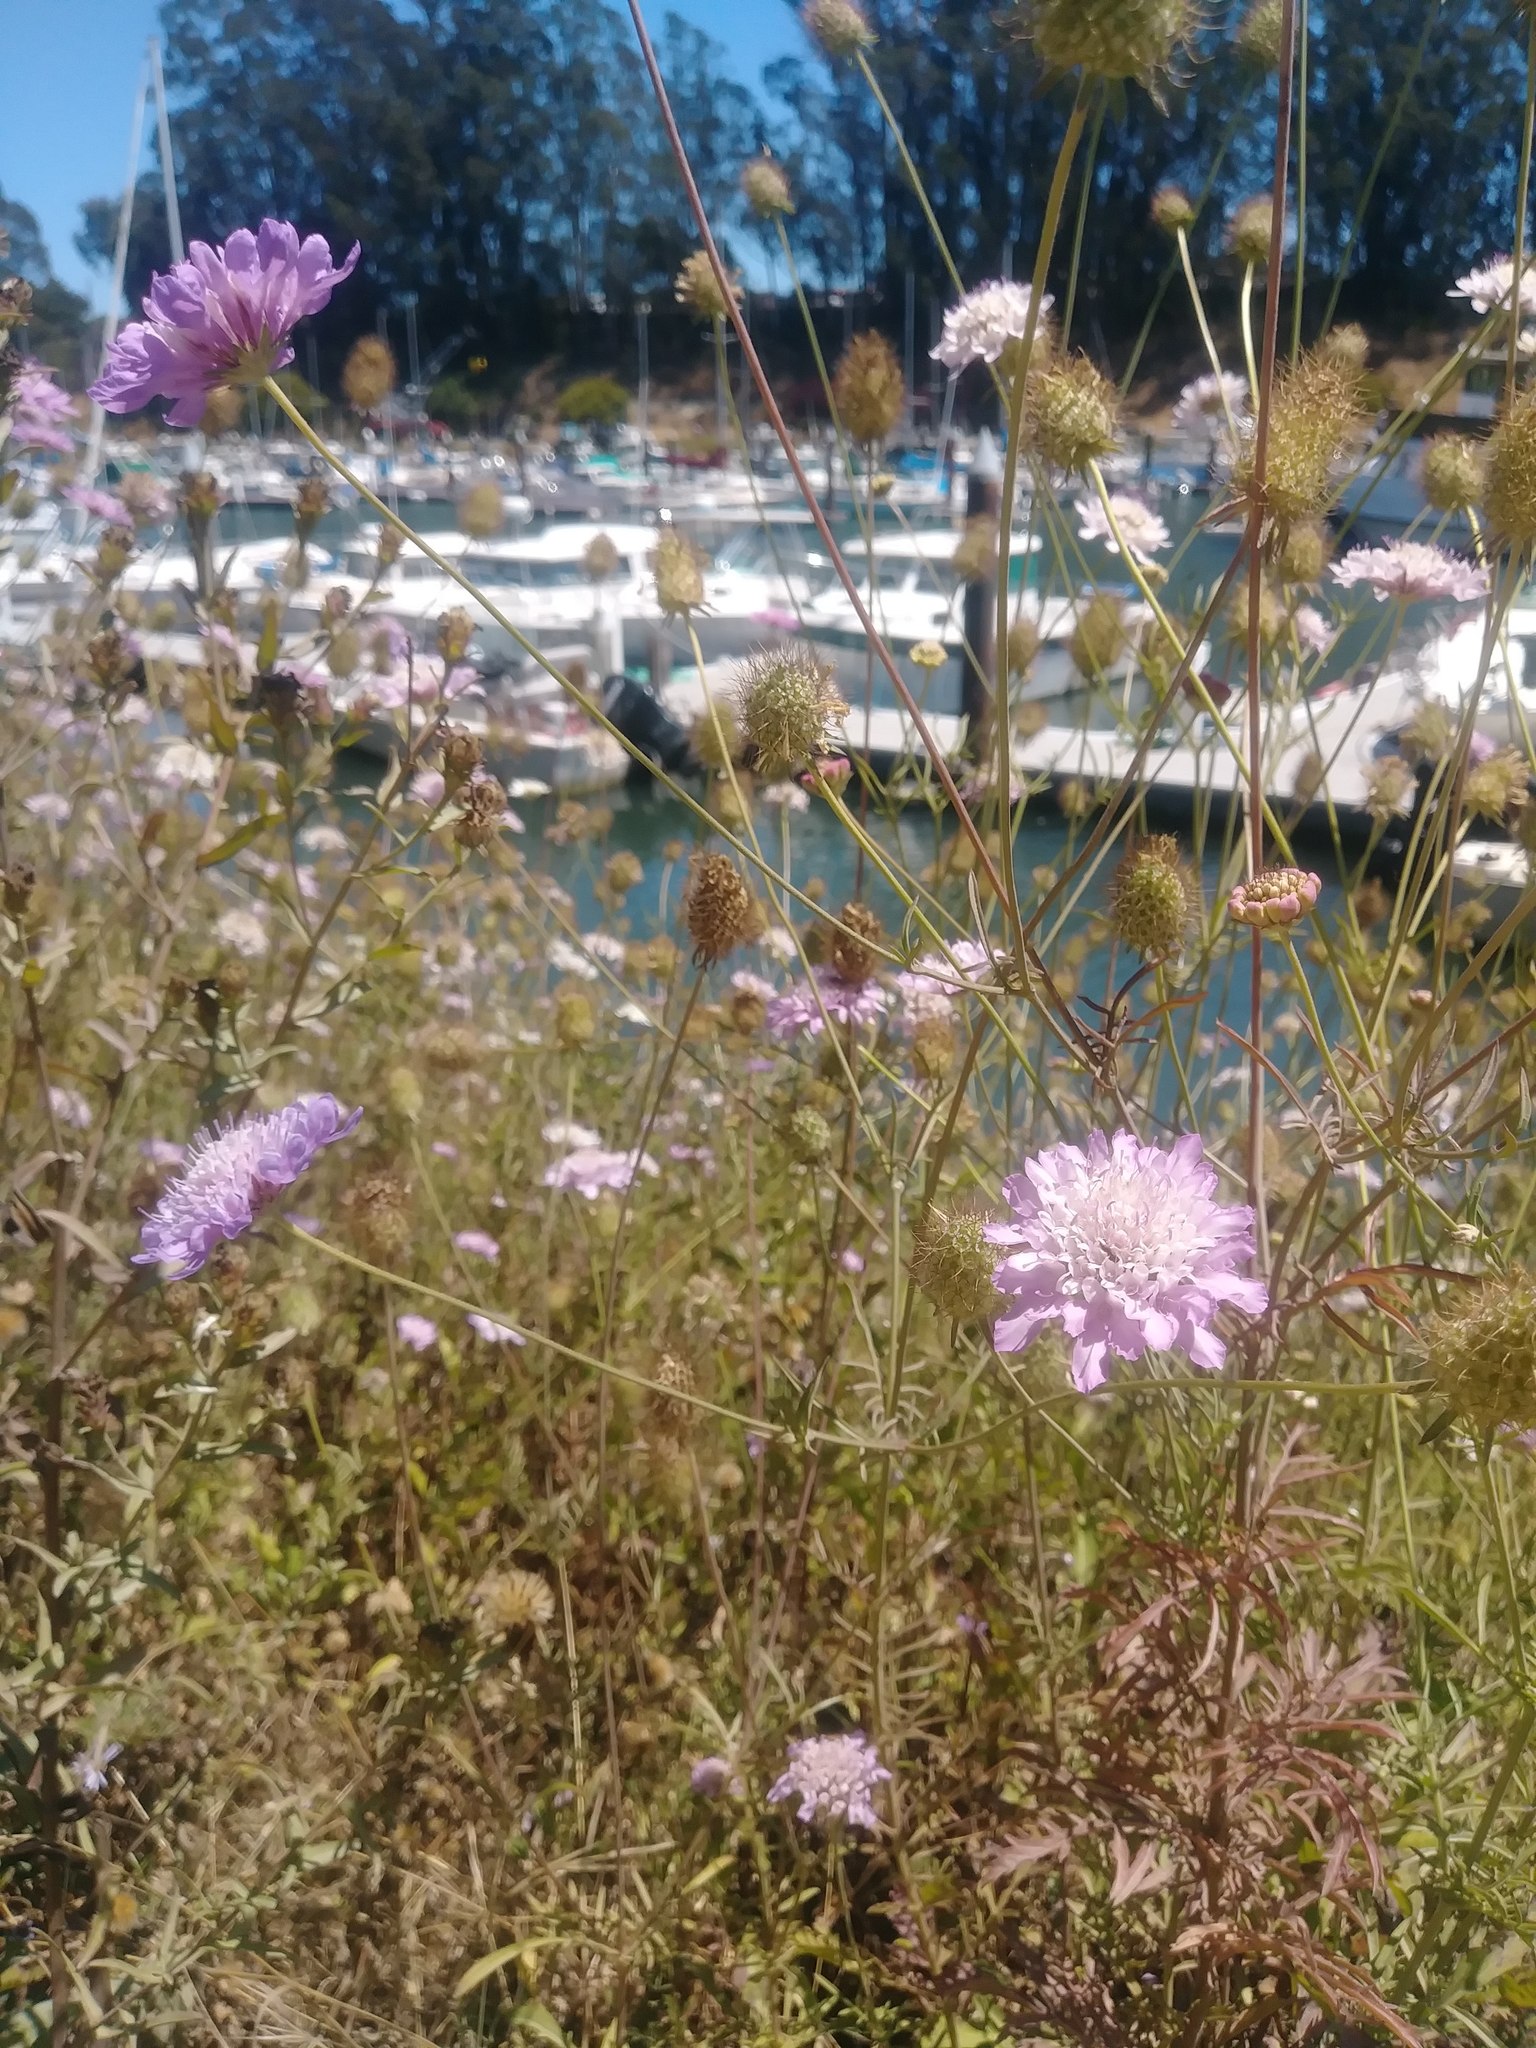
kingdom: Plantae
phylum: Tracheophyta
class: Magnoliopsida
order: Dipsacales
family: Caprifoliaceae
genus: Sixalix
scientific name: Sixalix atropurpurea
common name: Sweet scabious
